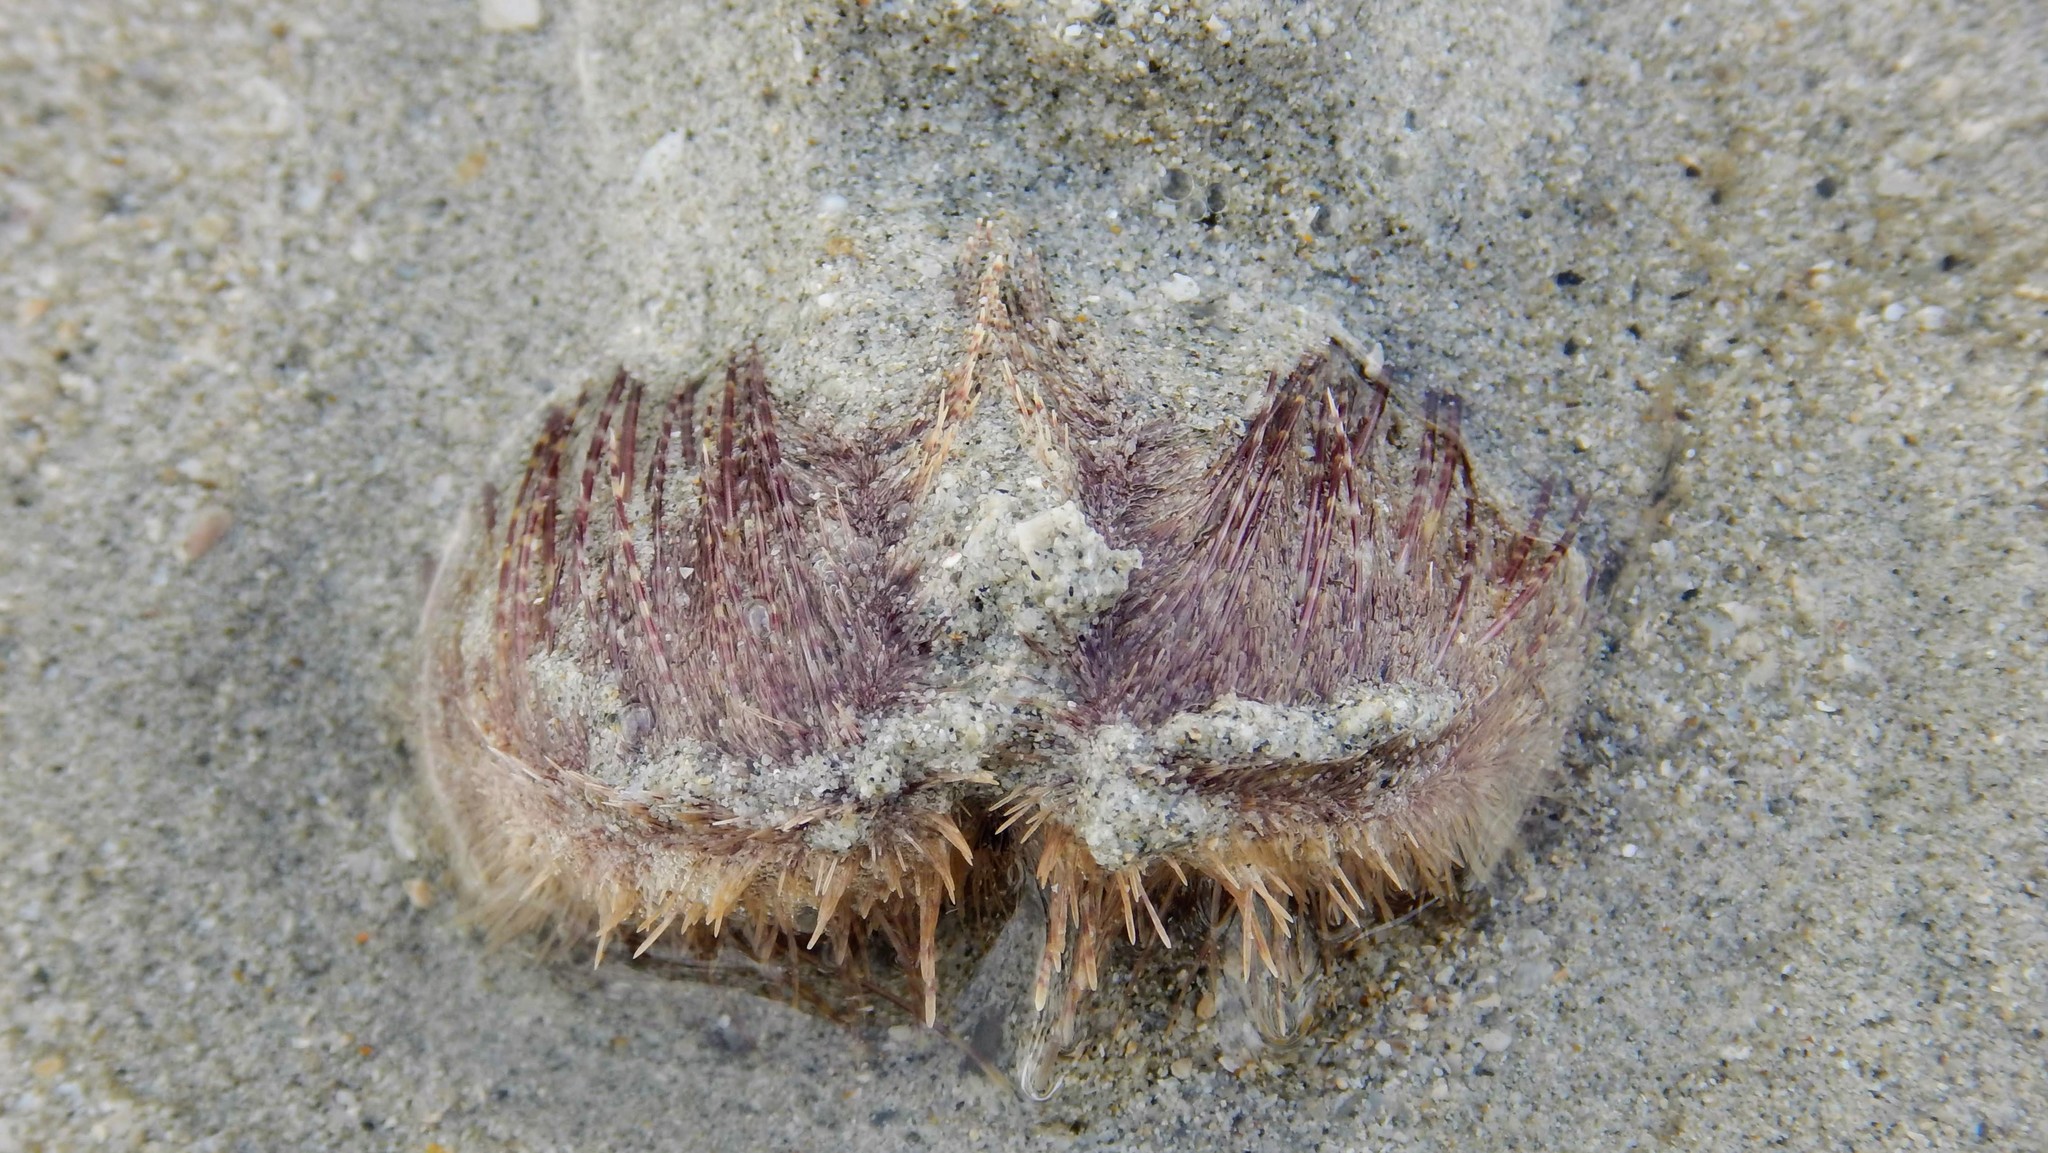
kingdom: Animalia
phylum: Echinodermata
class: Echinoidea
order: Spatangoida
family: Loveniidae
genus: Lovenia
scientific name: Lovenia elongata
